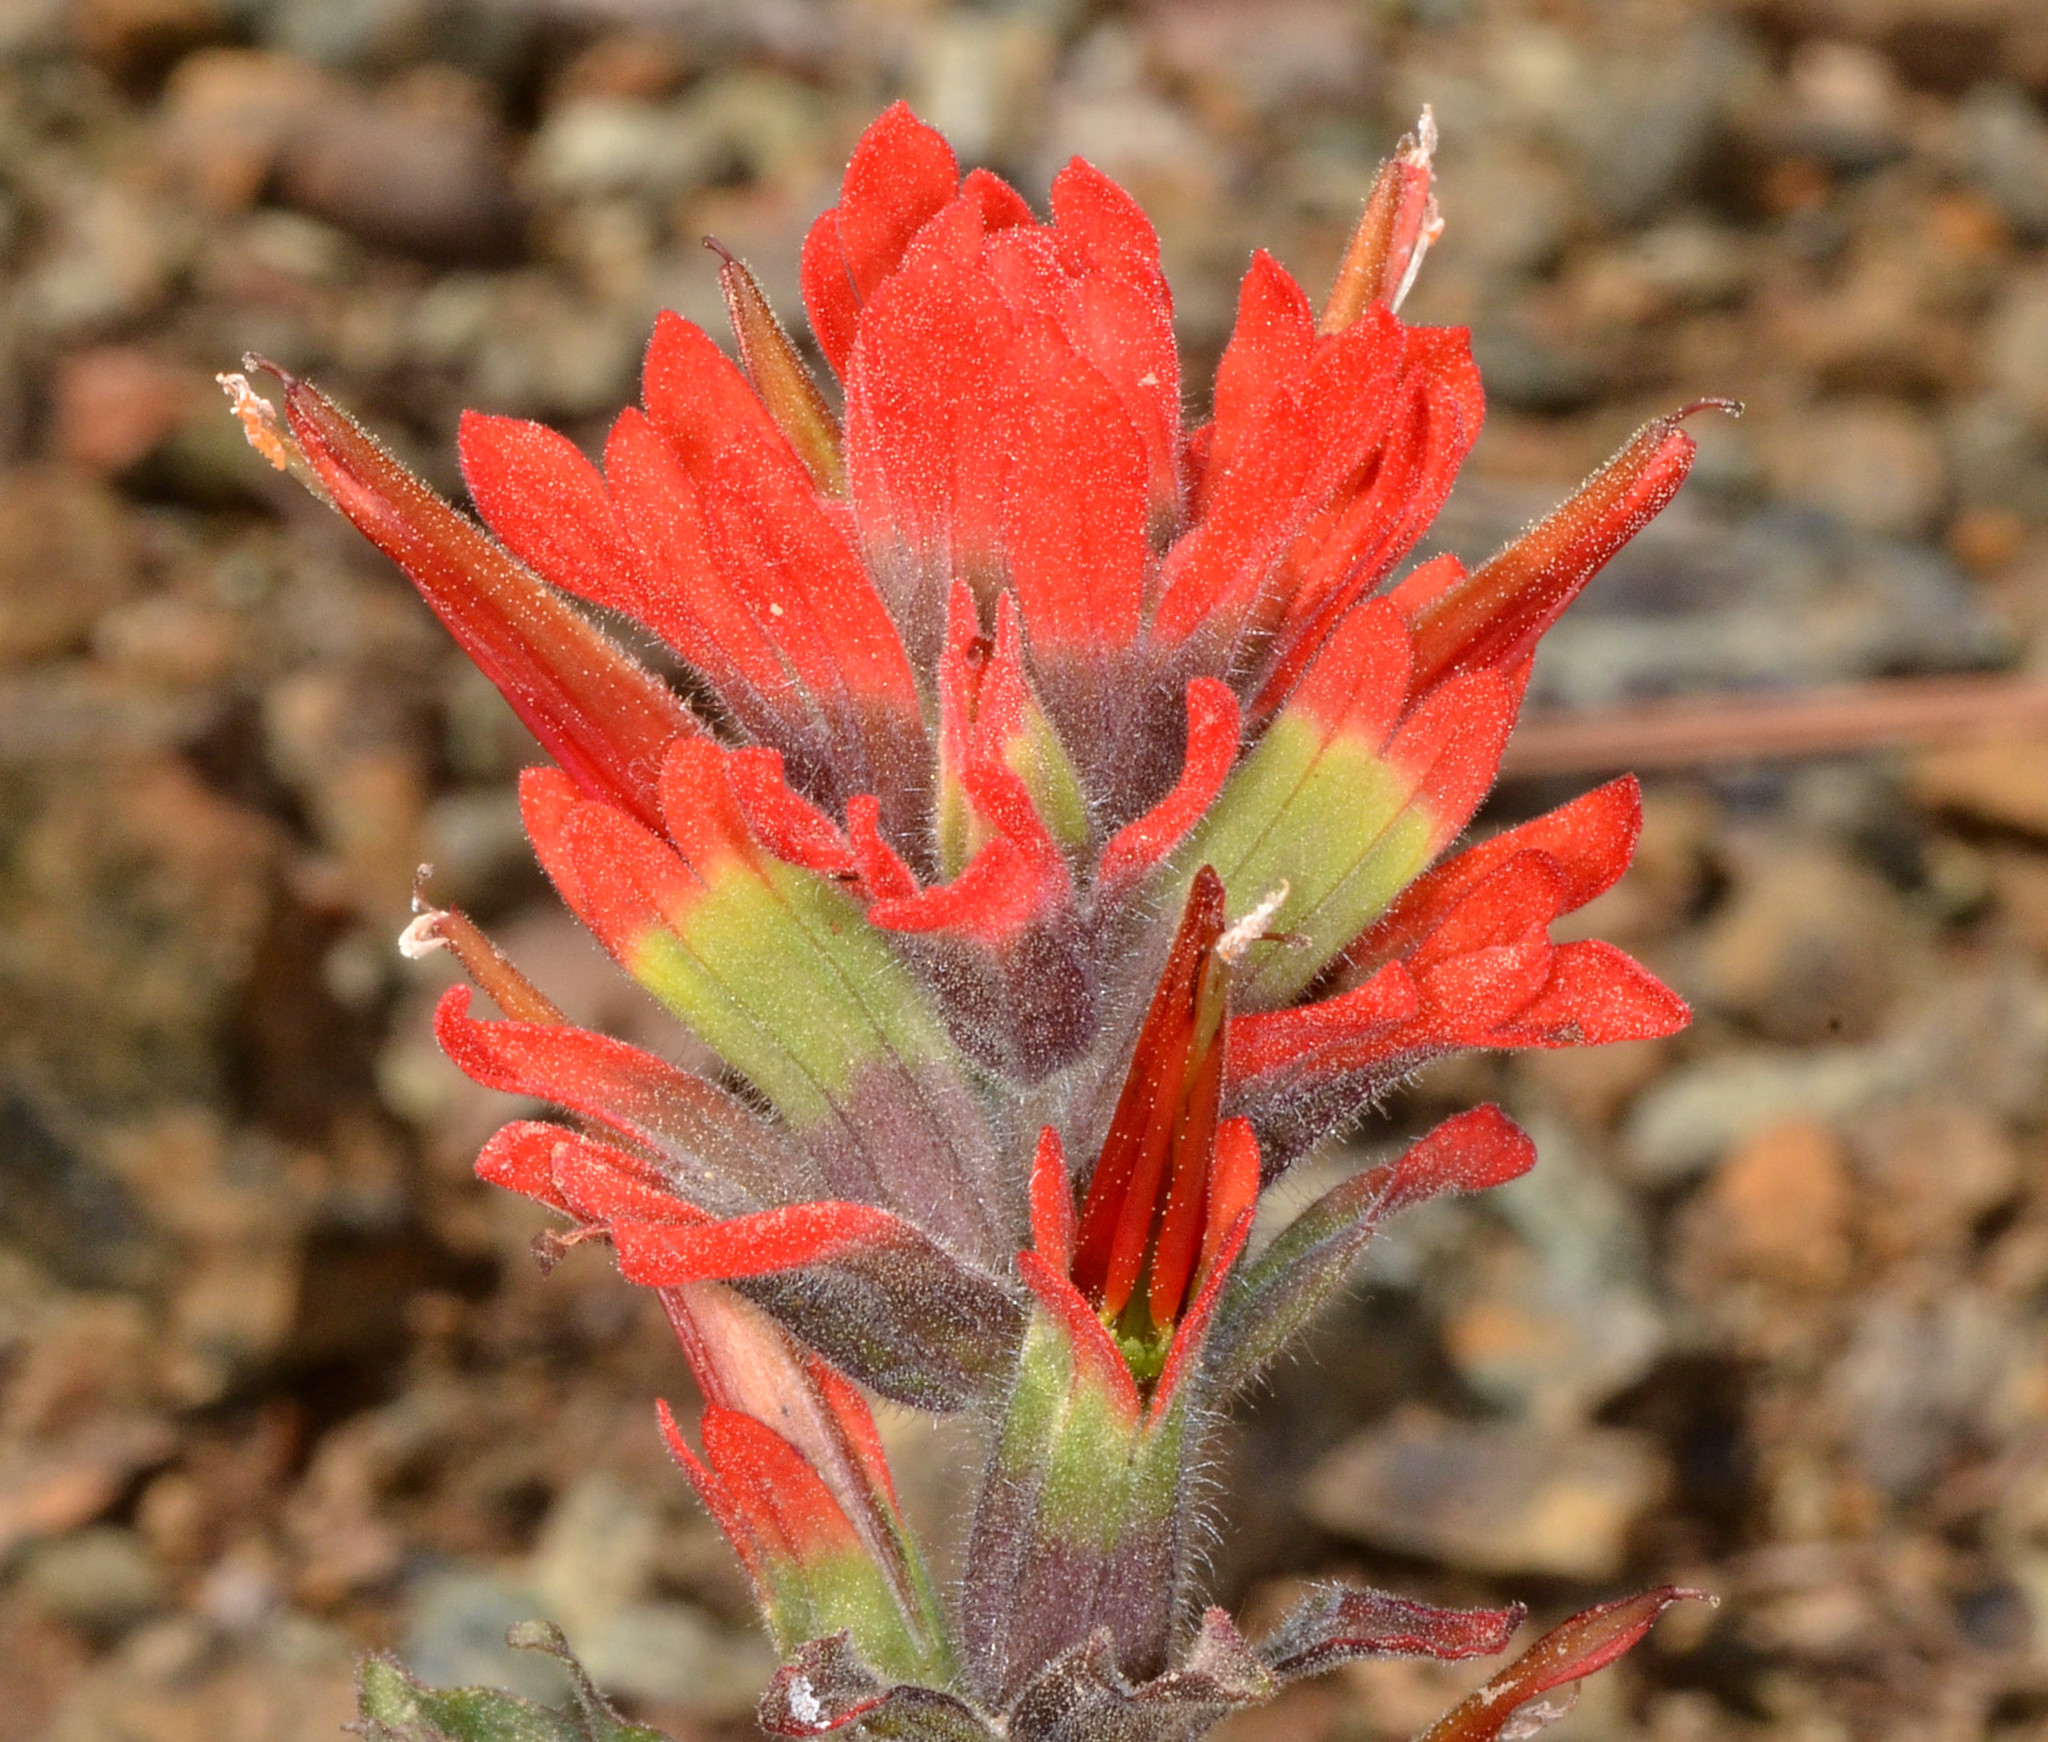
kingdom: Plantae
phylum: Tracheophyta
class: Magnoliopsida
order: Lamiales
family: Orobanchaceae
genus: Castilleja
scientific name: Castilleja foliolosa
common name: Woolly indian paintbrush
